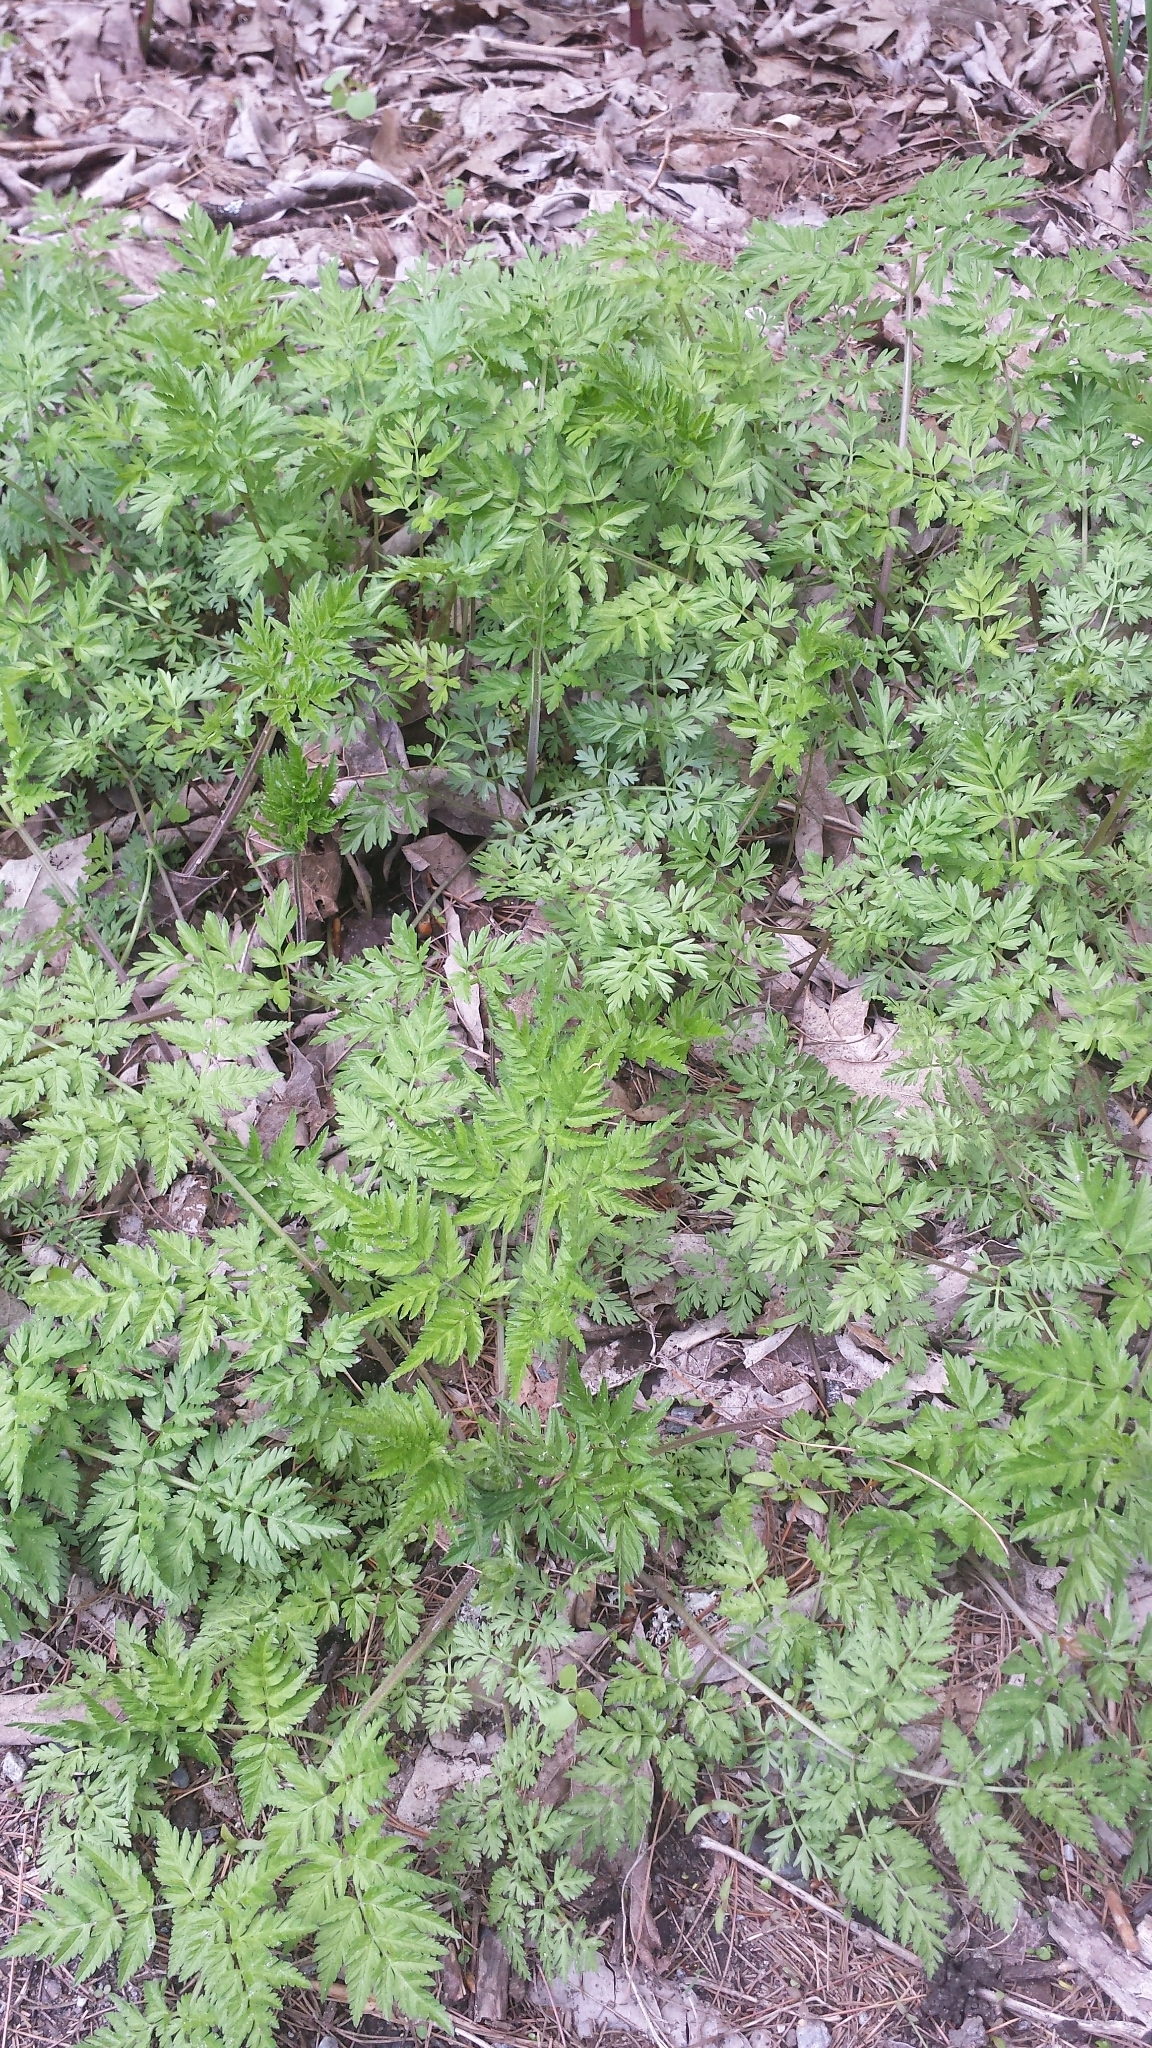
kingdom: Plantae
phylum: Tracheophyta
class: Magnoliopsida
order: Apiales
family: Apiaceae
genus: Anthriscus
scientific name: Anthriscus sylvestris
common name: Cow parsley
